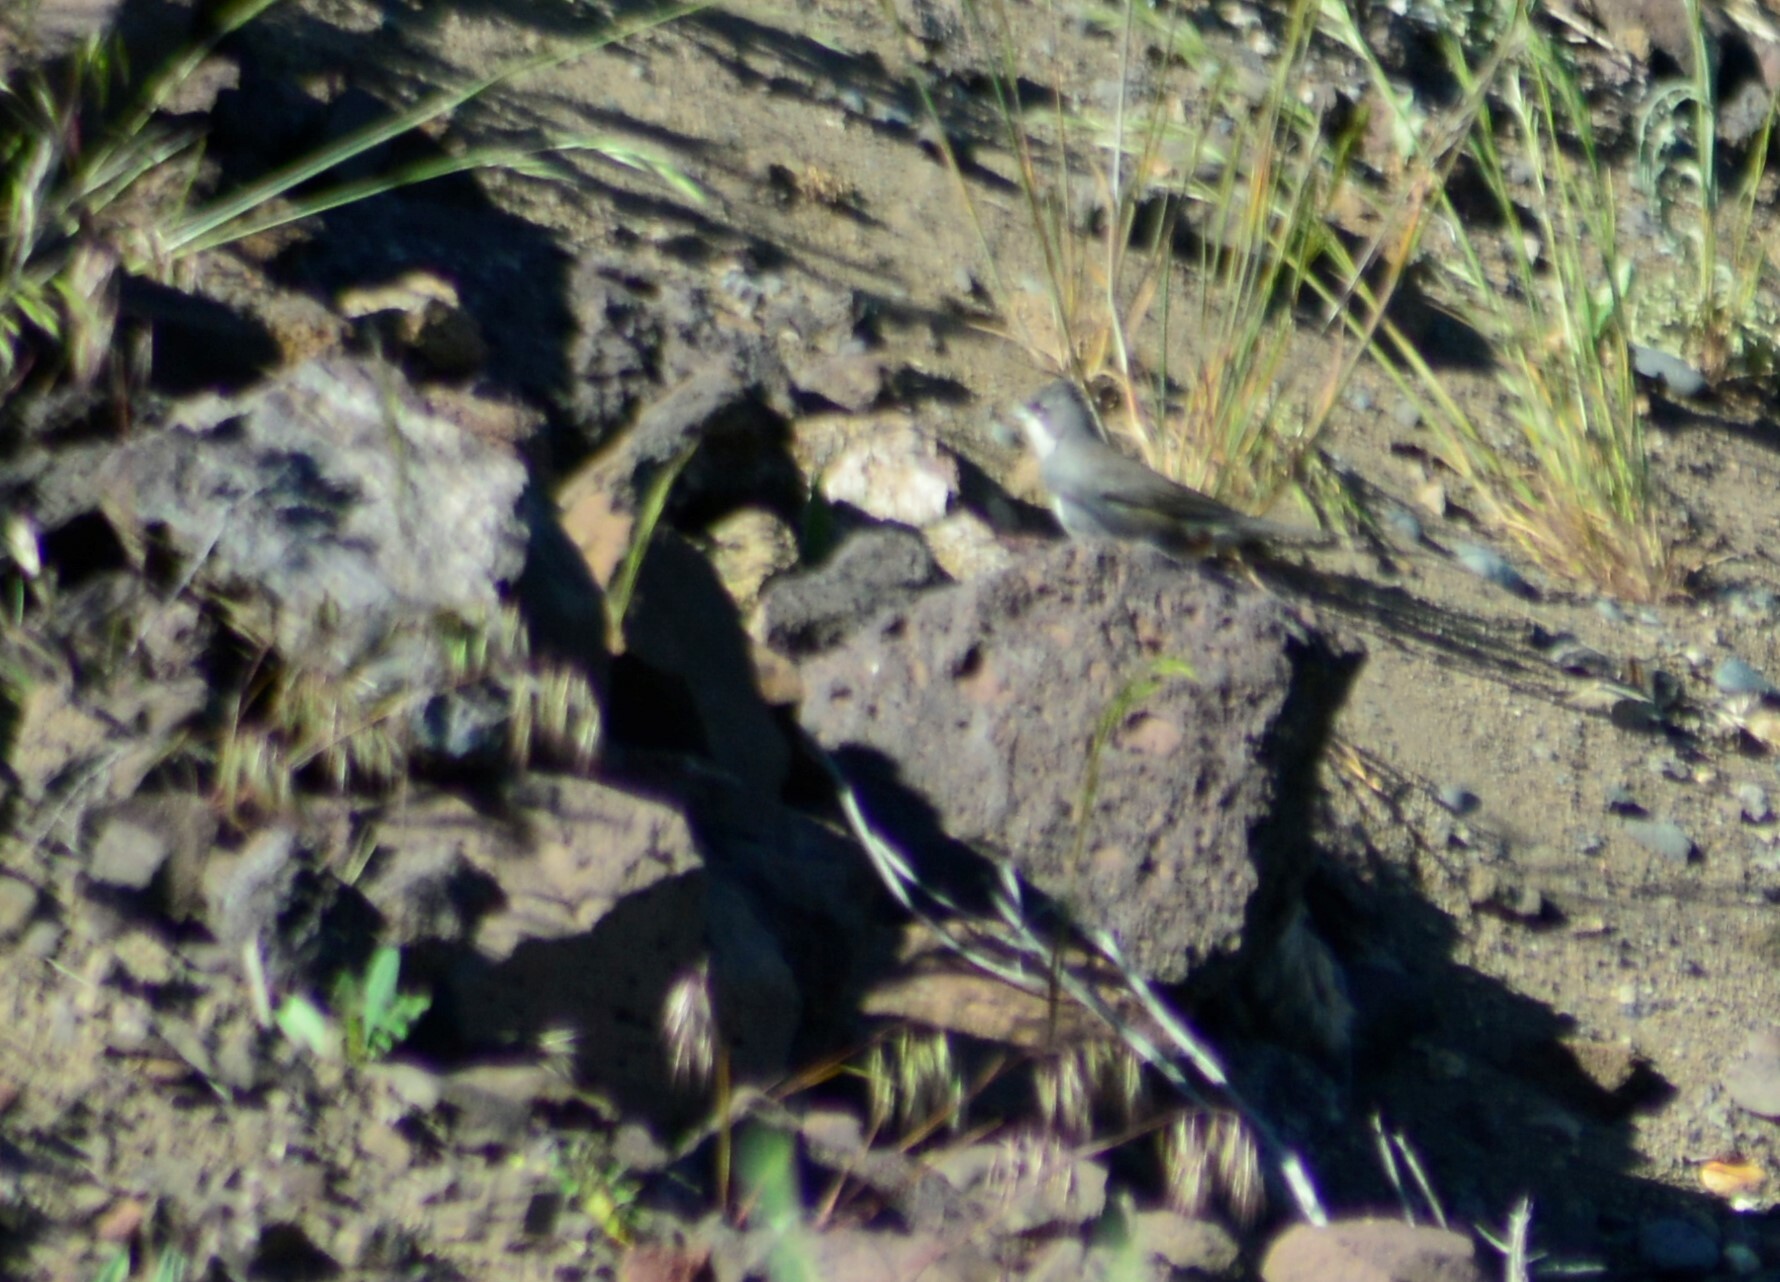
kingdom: Animalia
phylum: Chordata
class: Aves
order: Passeriformes
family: Thraupidae
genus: Diuca
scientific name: Diuca diuca
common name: Common diuca finch
